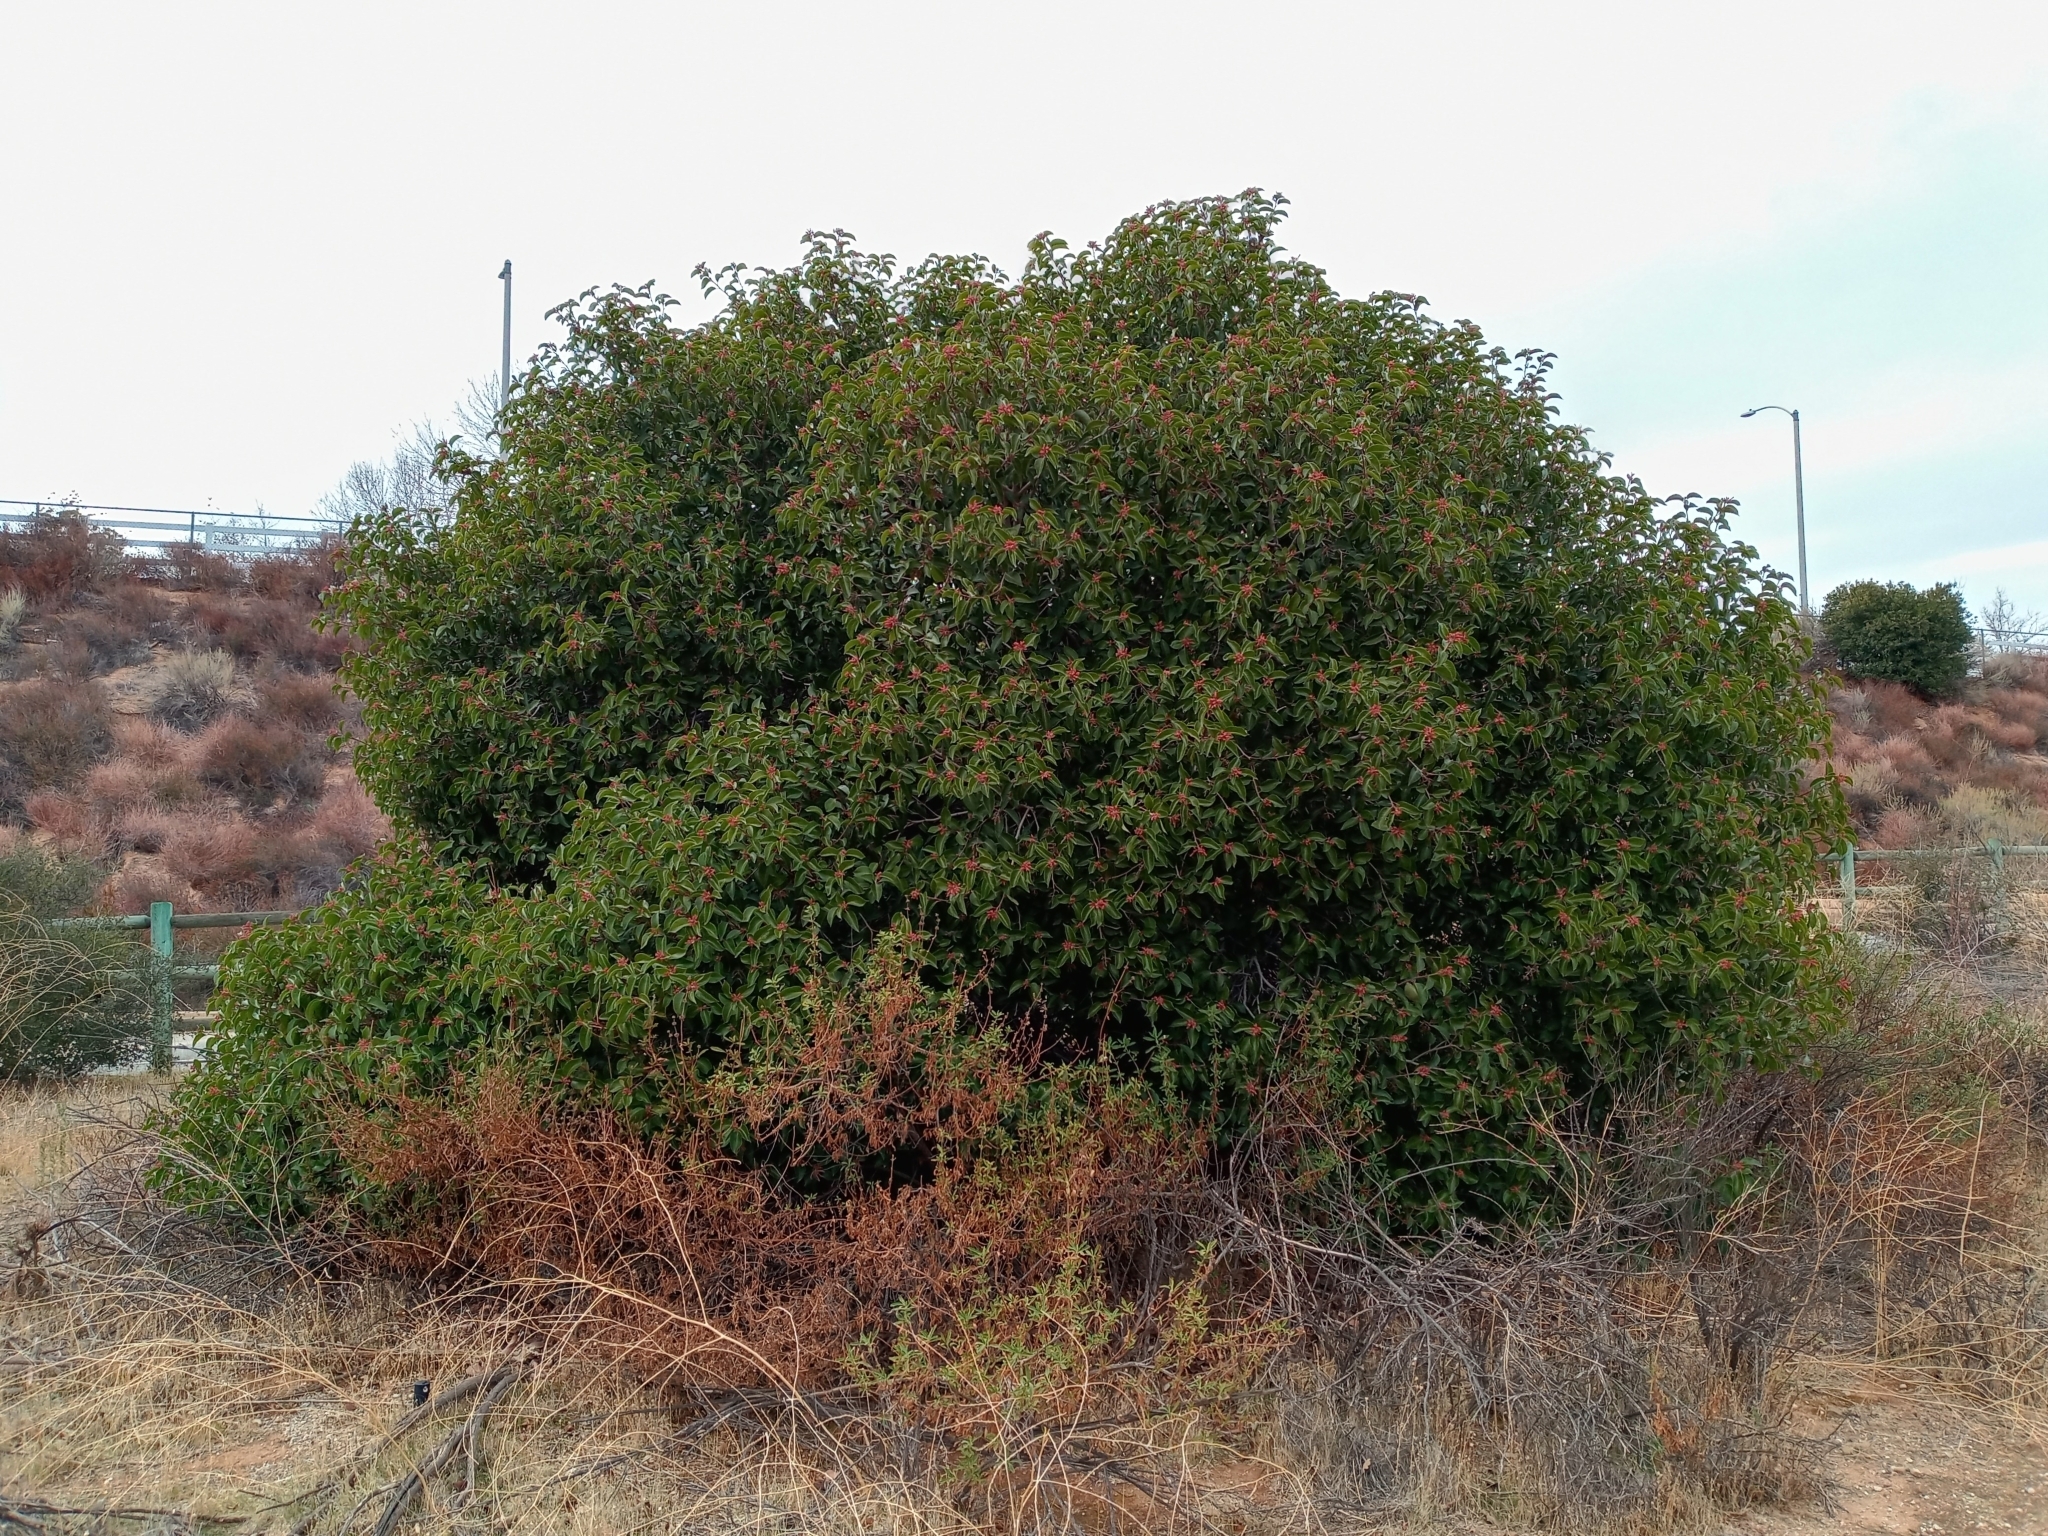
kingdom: Plantae
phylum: Tracheophyta
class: Magnoliopsida
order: Sapindales
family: Anacardiaceae
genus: Rhus
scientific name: Rhus ovata
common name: Sugar sumac
